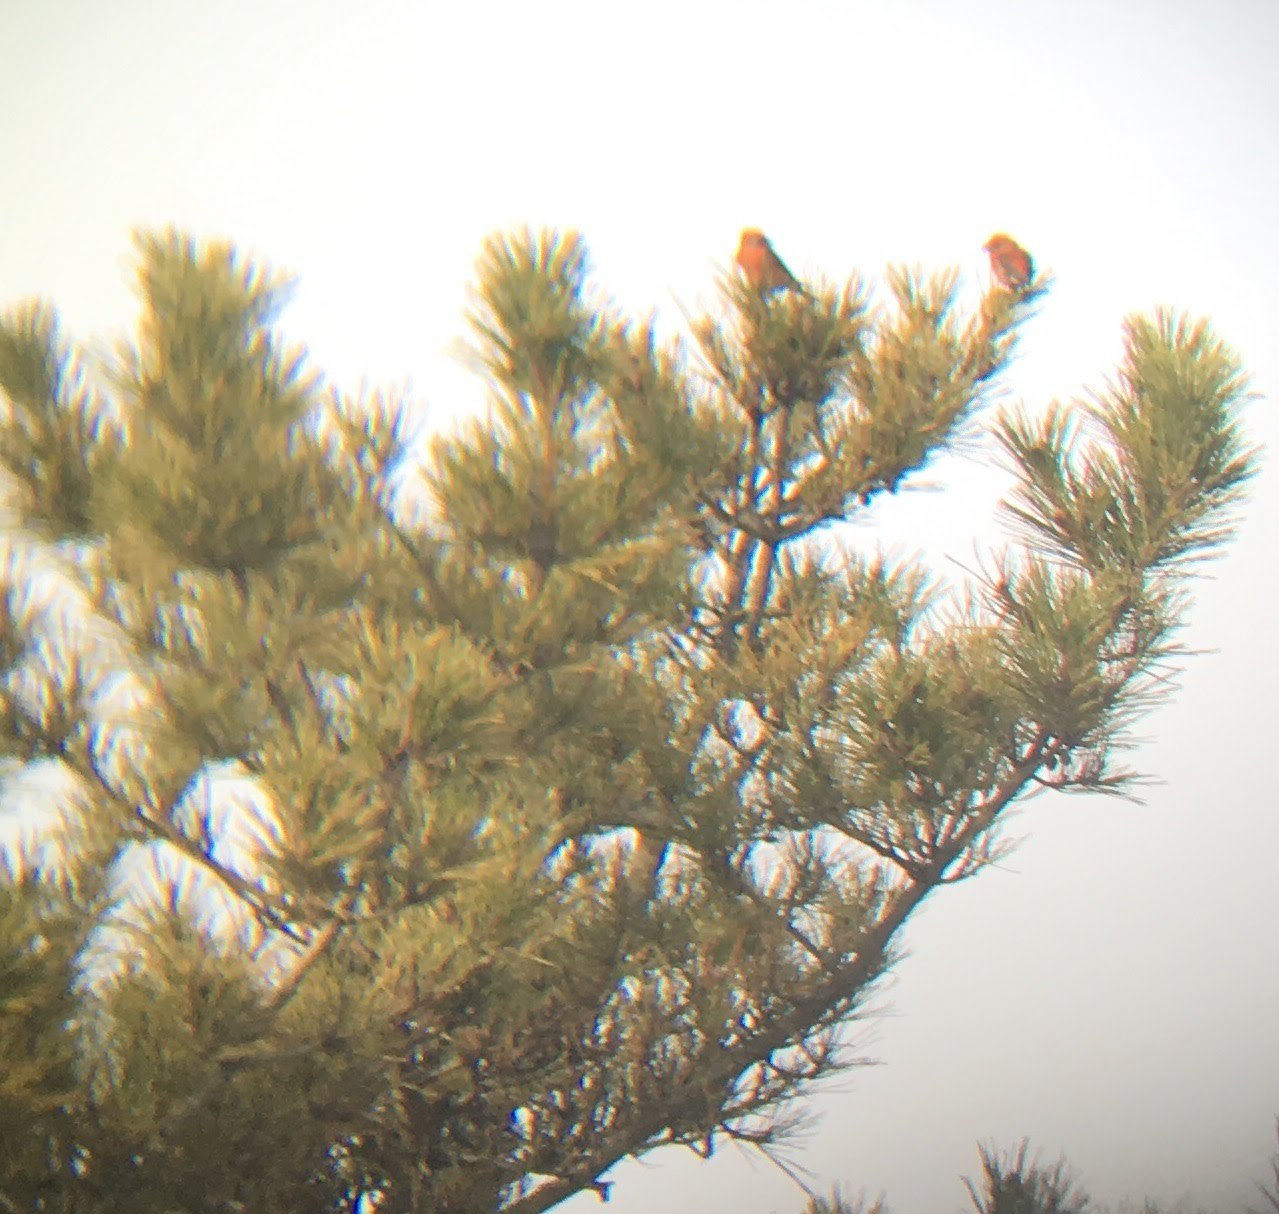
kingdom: Animalia
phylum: Chordata
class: Aves
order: Passeriformes
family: Fringillidae
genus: Loxia
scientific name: Loxia curvirostra
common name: Red crossbill
